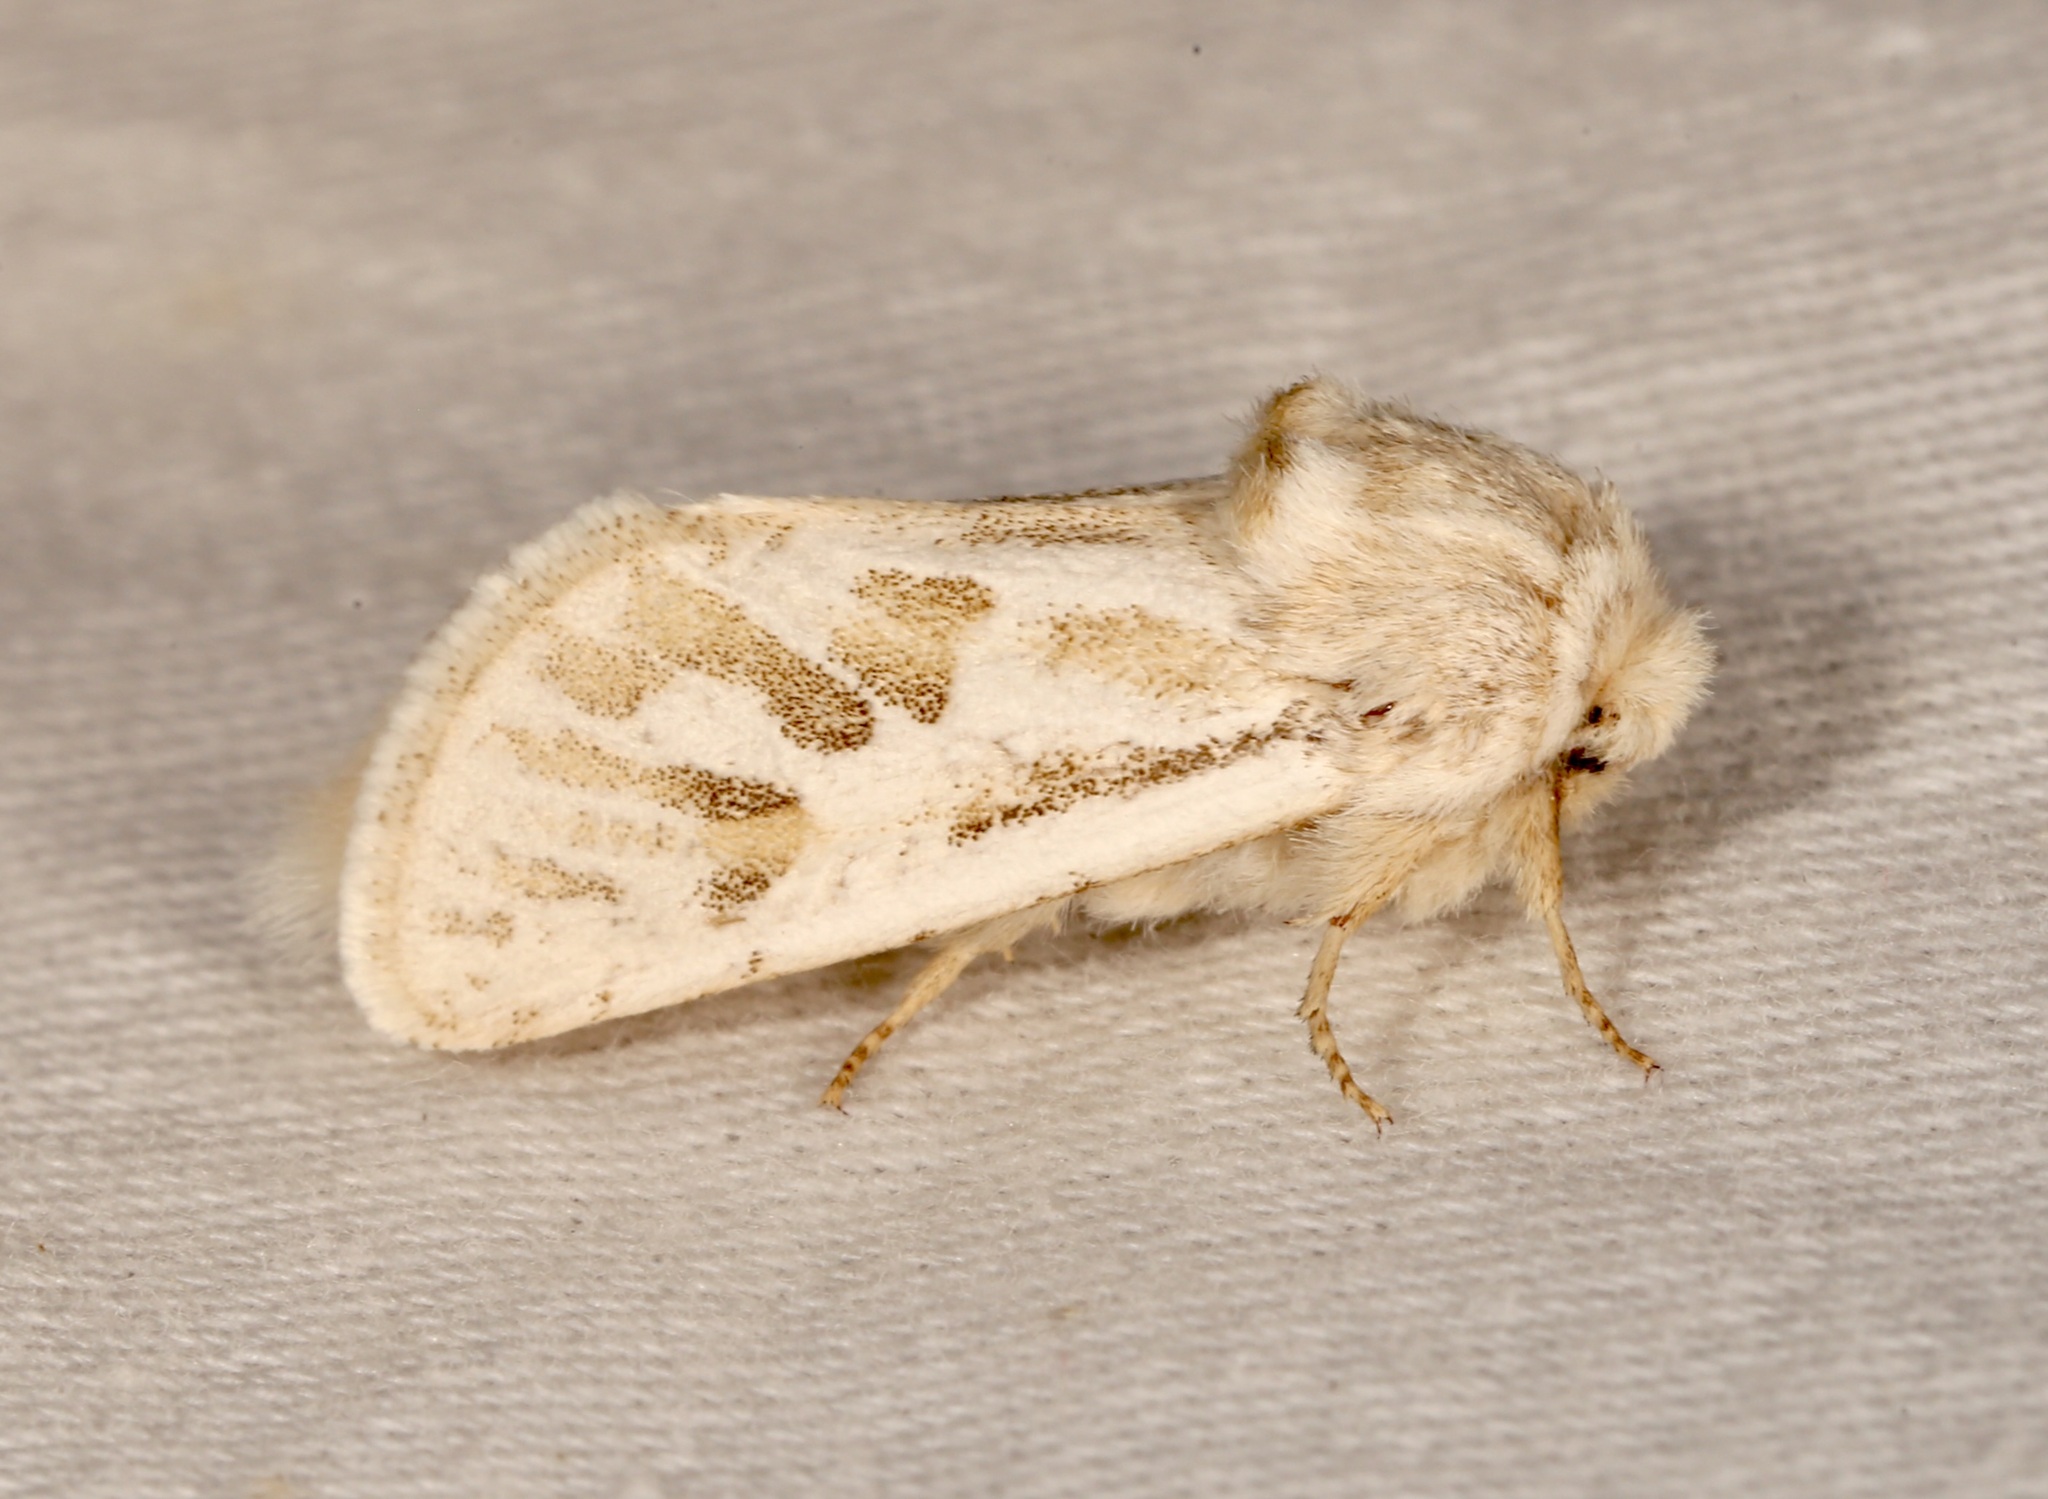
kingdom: Animalia
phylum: Arthropoda
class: Insecta
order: Lepidoptera
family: Cossidae
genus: Comadia
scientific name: Comadia henrici
